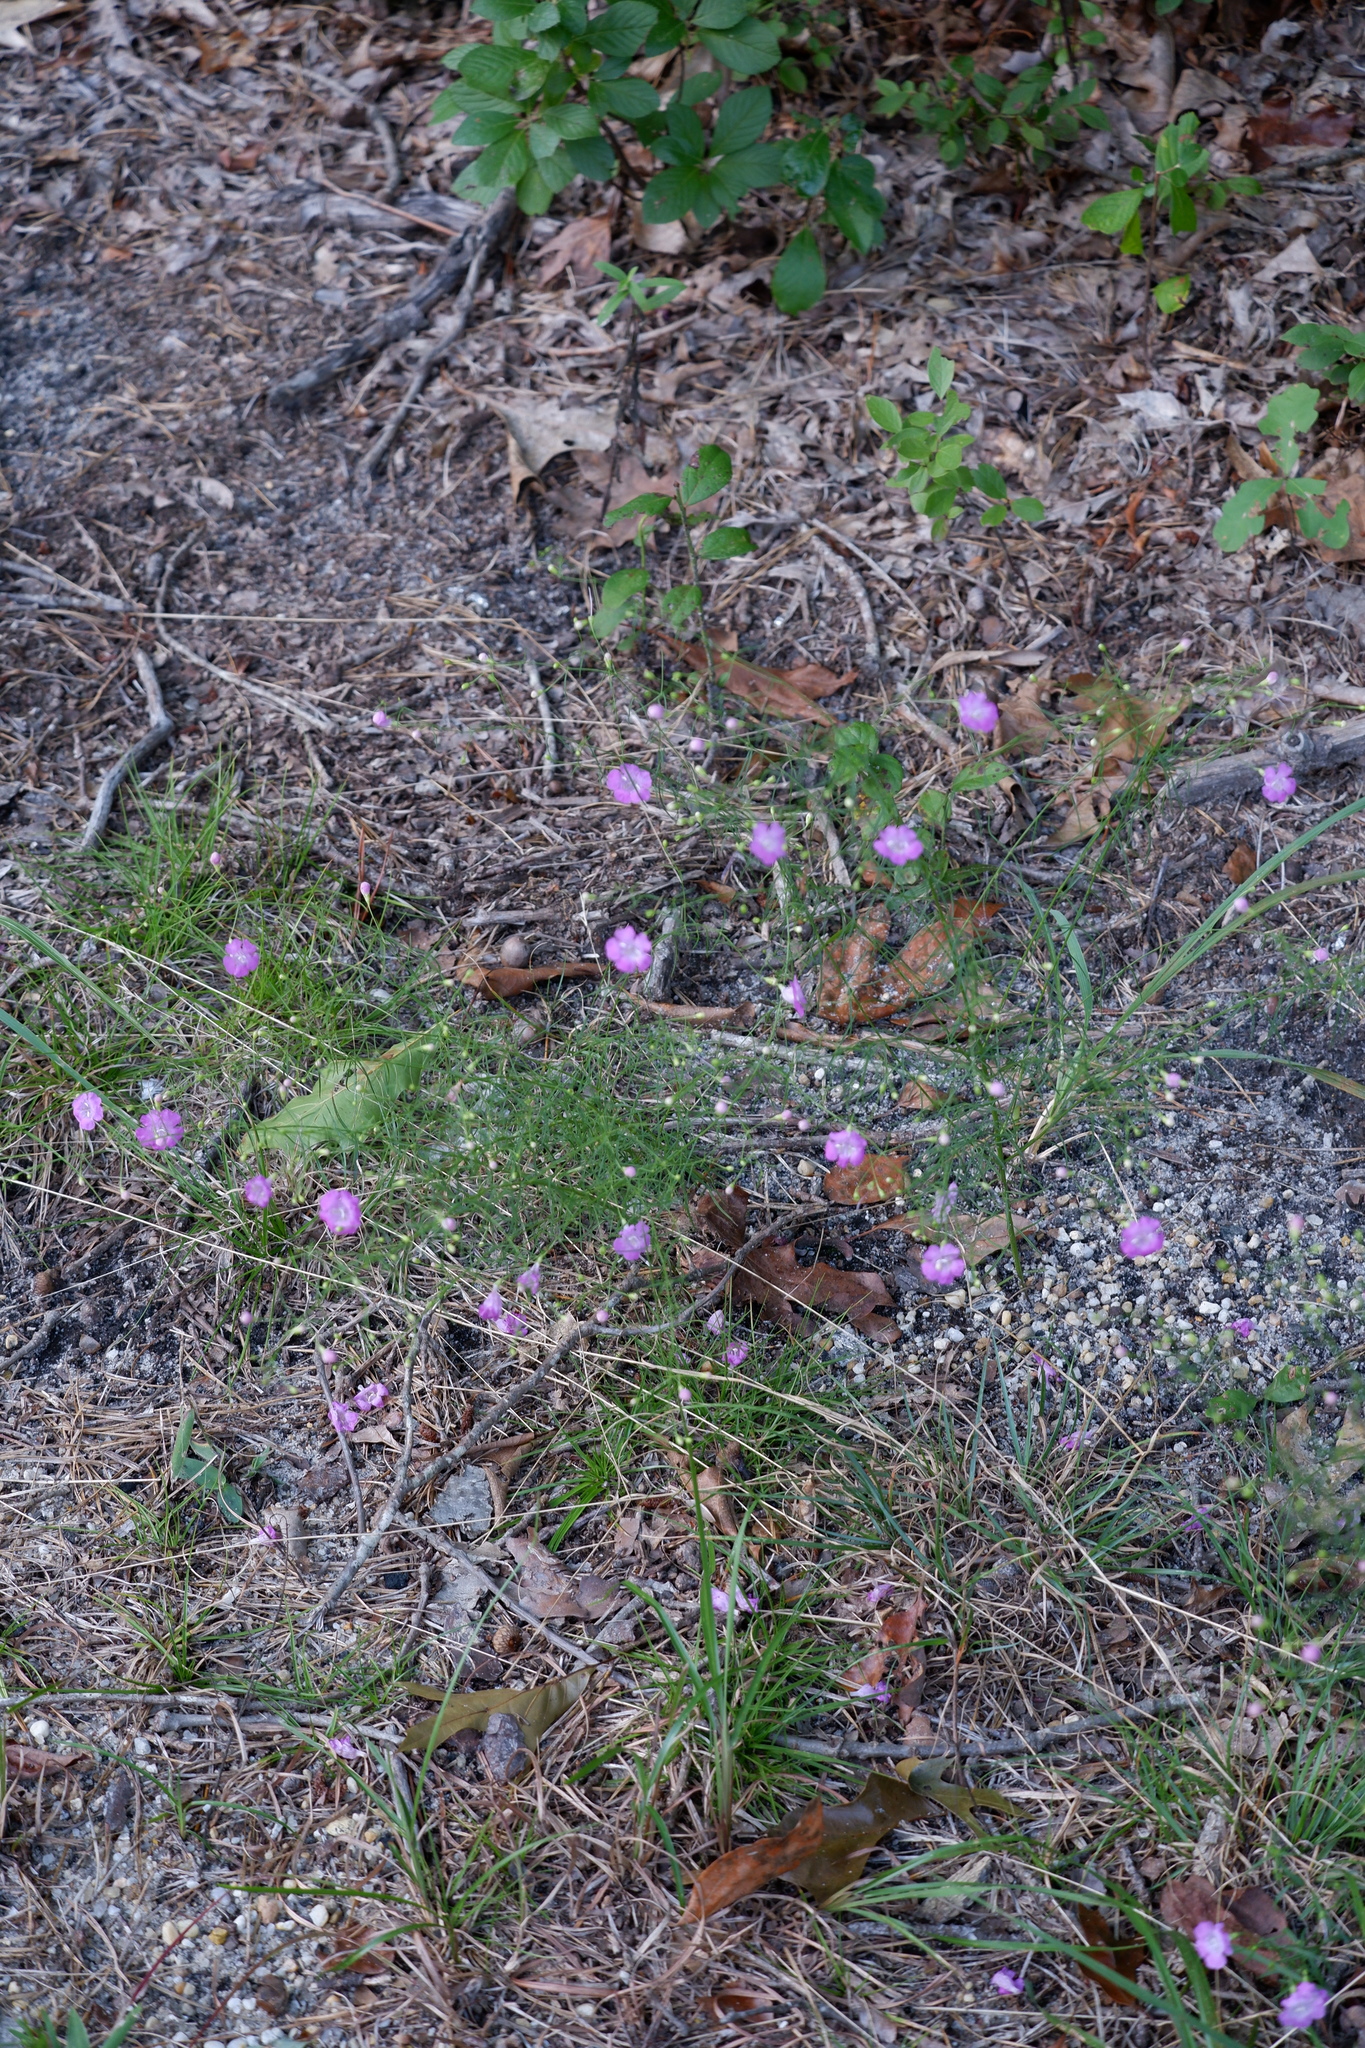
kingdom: Plantae
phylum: Tracheophyta
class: Magnoliopsida
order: Lamiales
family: Orobanchaceae
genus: Agalinis
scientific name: Agalinis setacea
